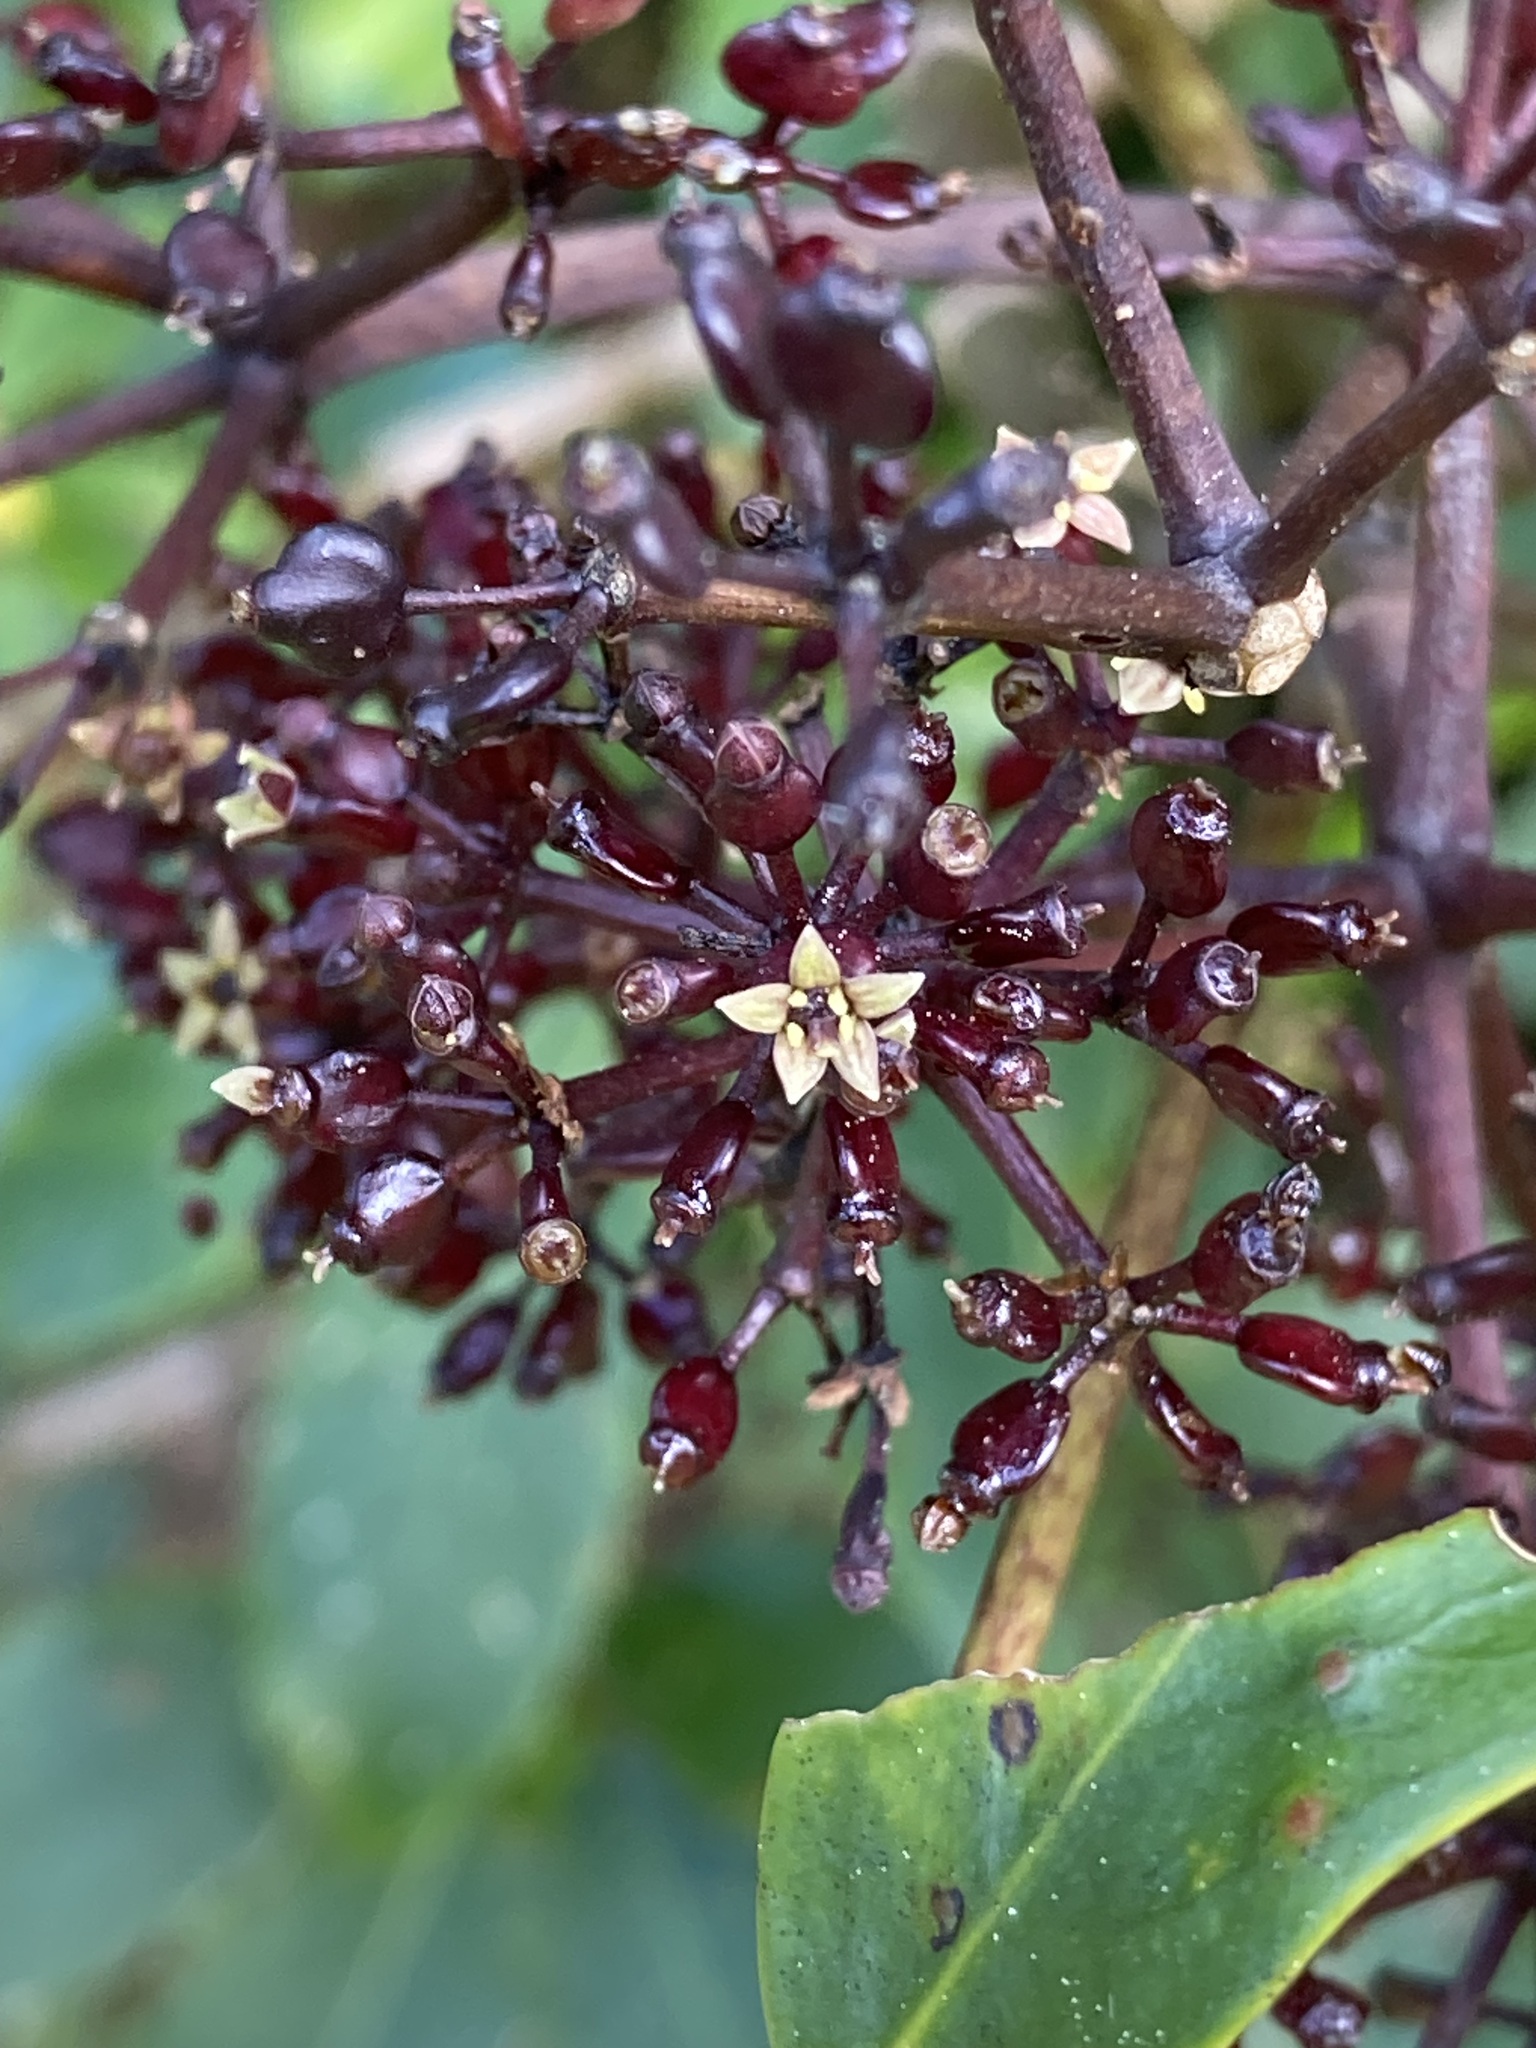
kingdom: Plantae
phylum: Tracheophyta
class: Magnoliopsida
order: Apiales
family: Araliaceae
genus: Neopanax
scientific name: Neopanax arboreus
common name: Five-fingers
